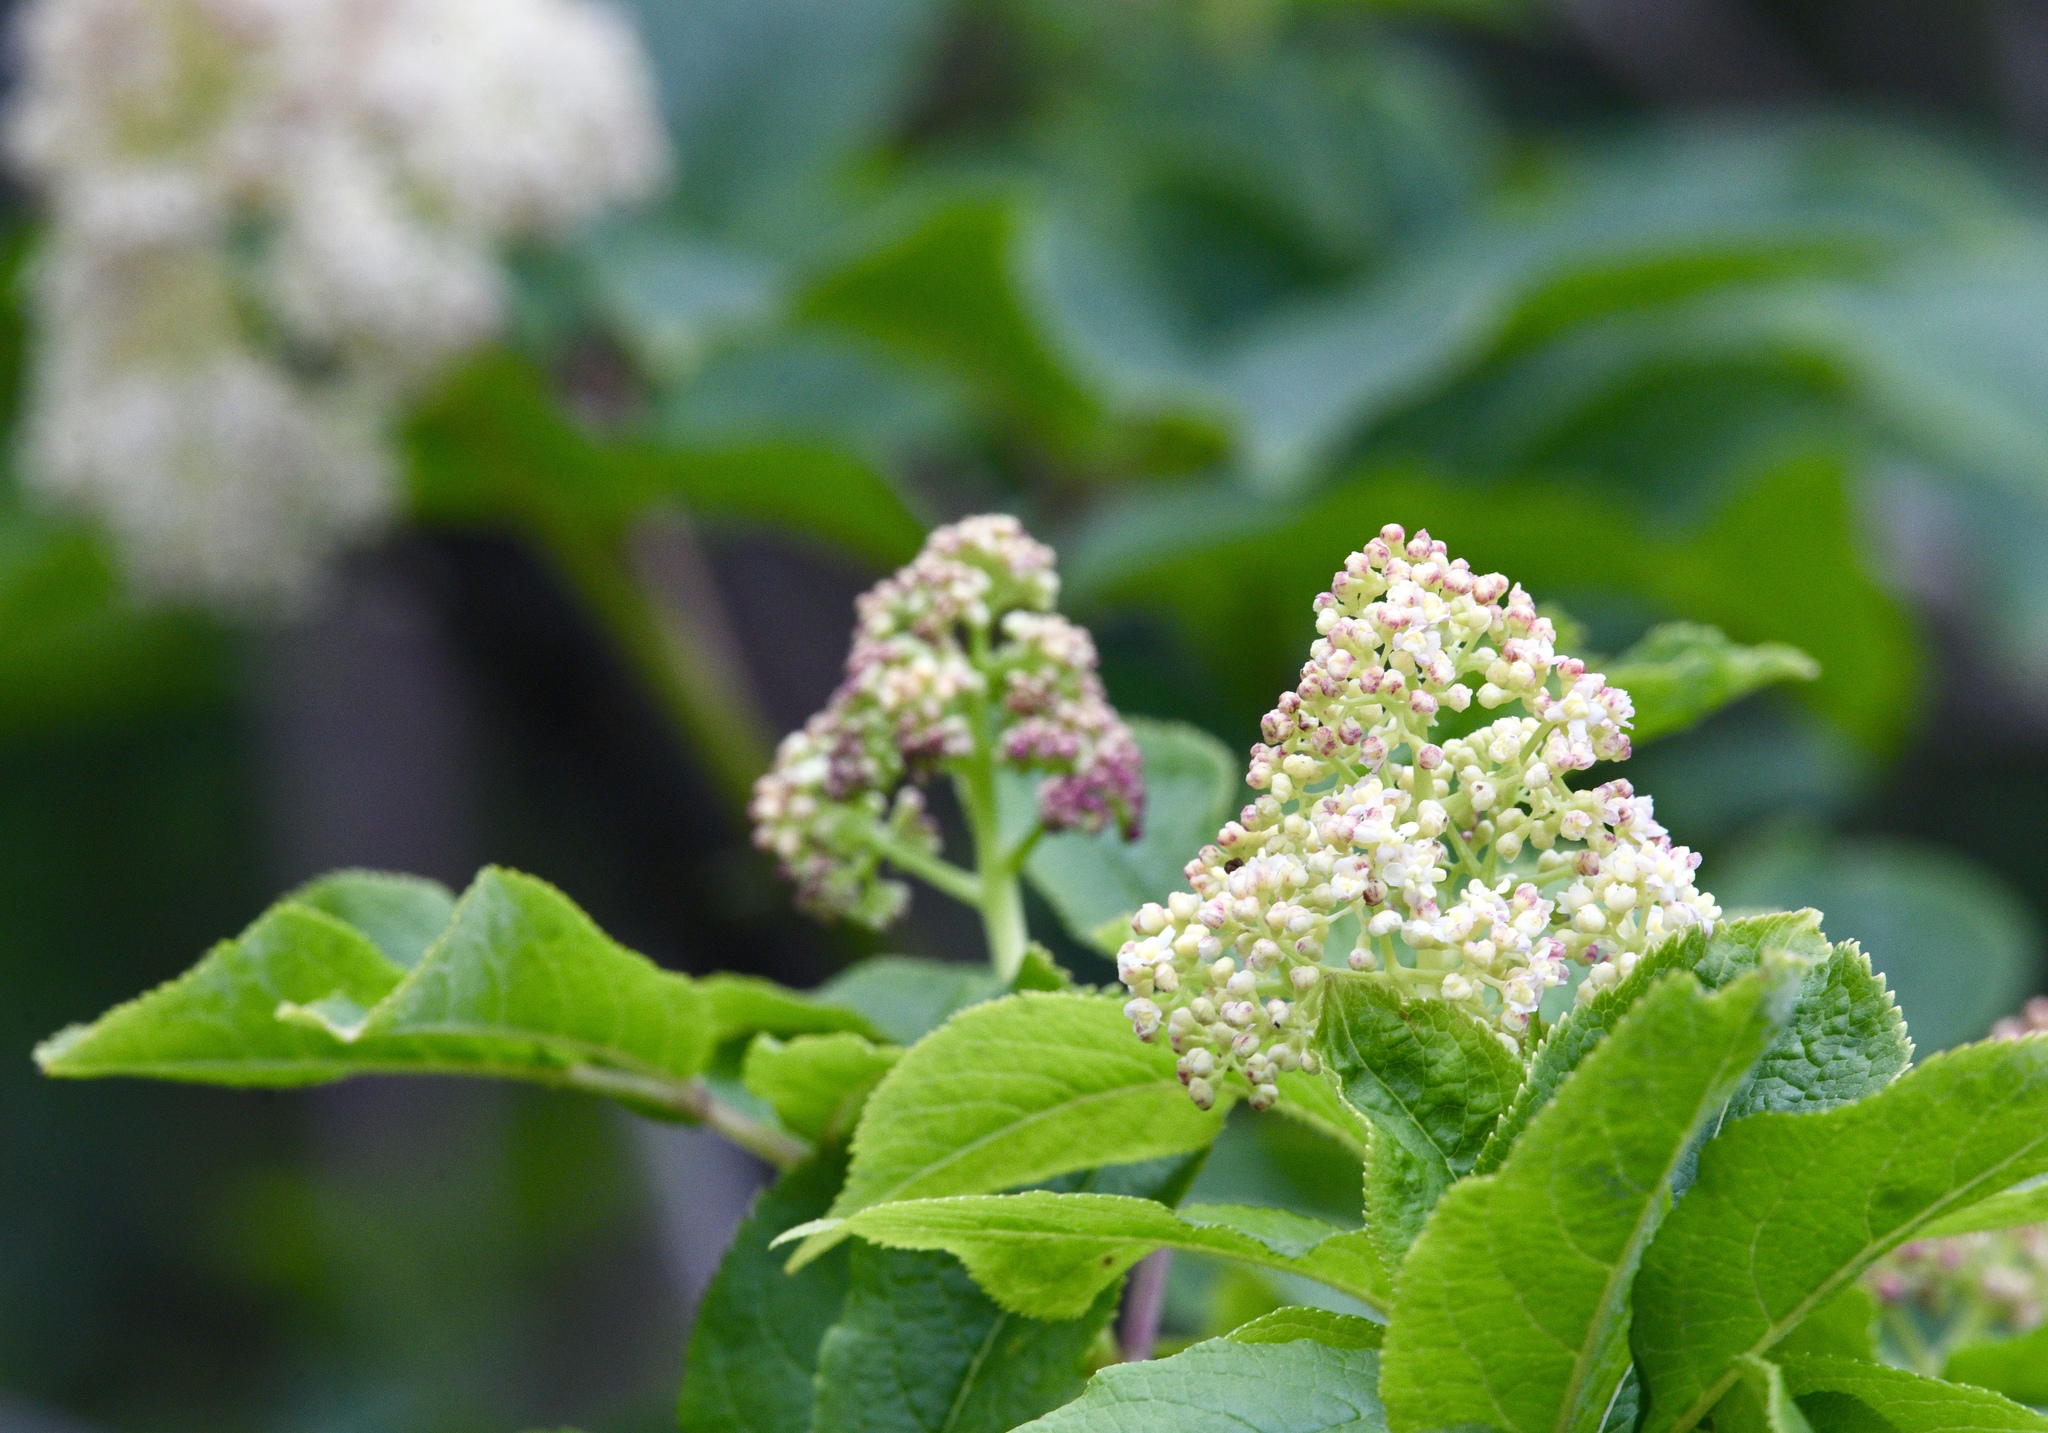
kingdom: Plantae
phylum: Tracheophyta
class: Magnoliopsida
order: Dipsacales
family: Viburnaceae
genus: Sambucus
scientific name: Sambucus racemosa
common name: Red-berried elder
